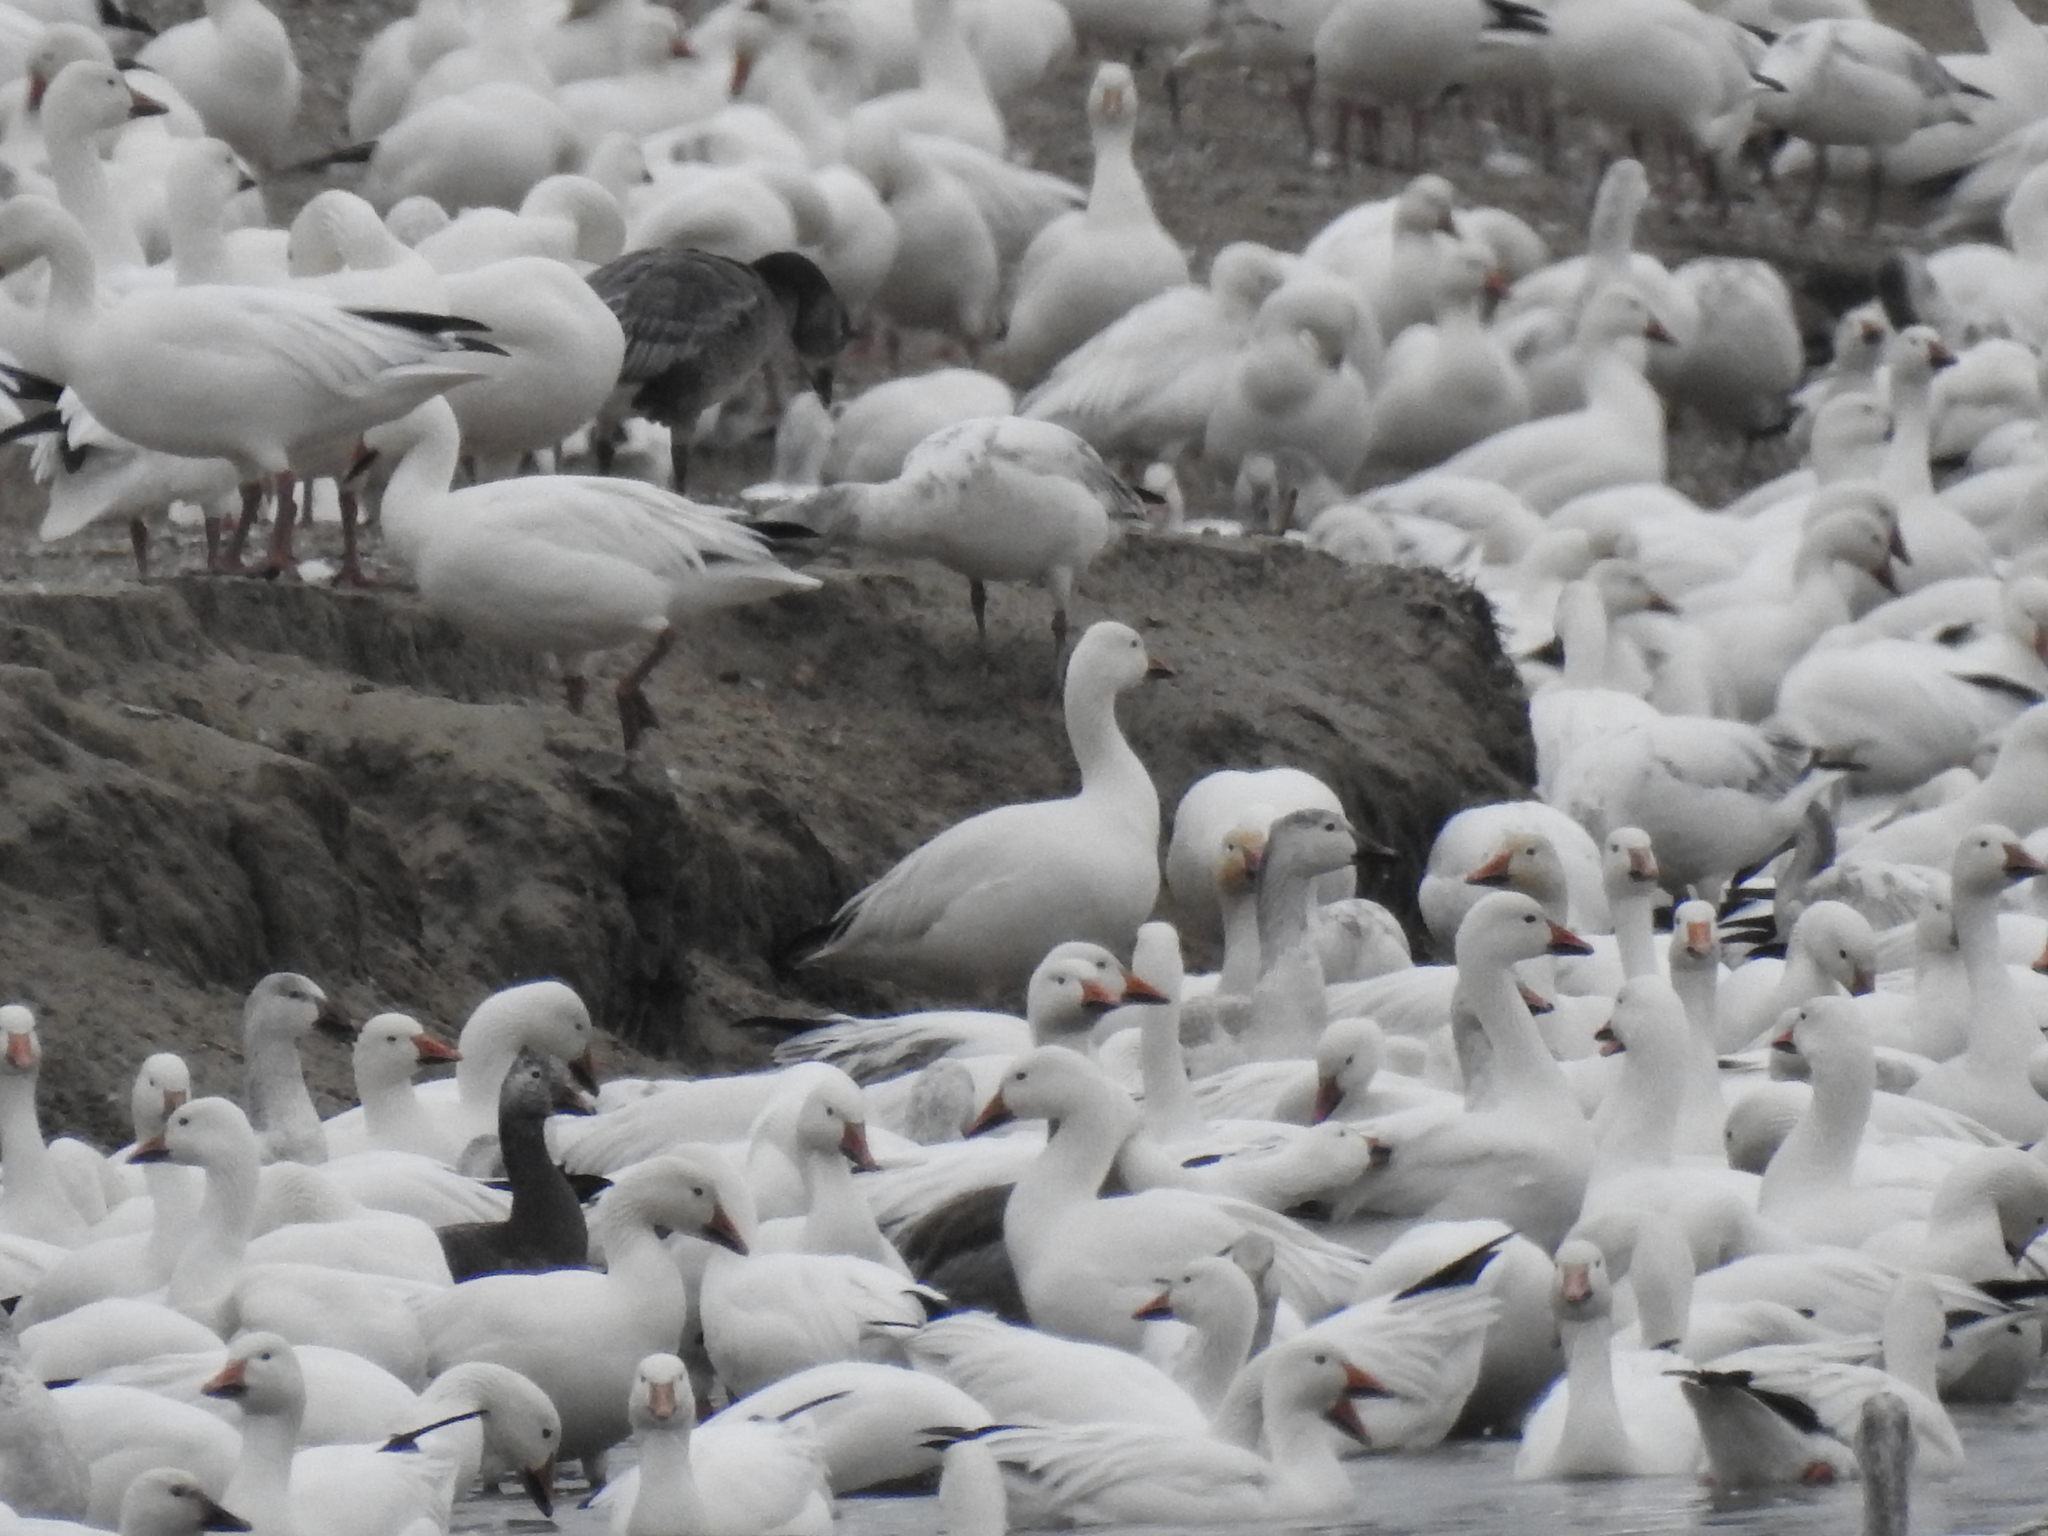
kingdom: Animalia
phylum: Chordata
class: Aves
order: Anseriformes
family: Anatidae
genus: Anser
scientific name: Anser caerulescens
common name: Snow goose
